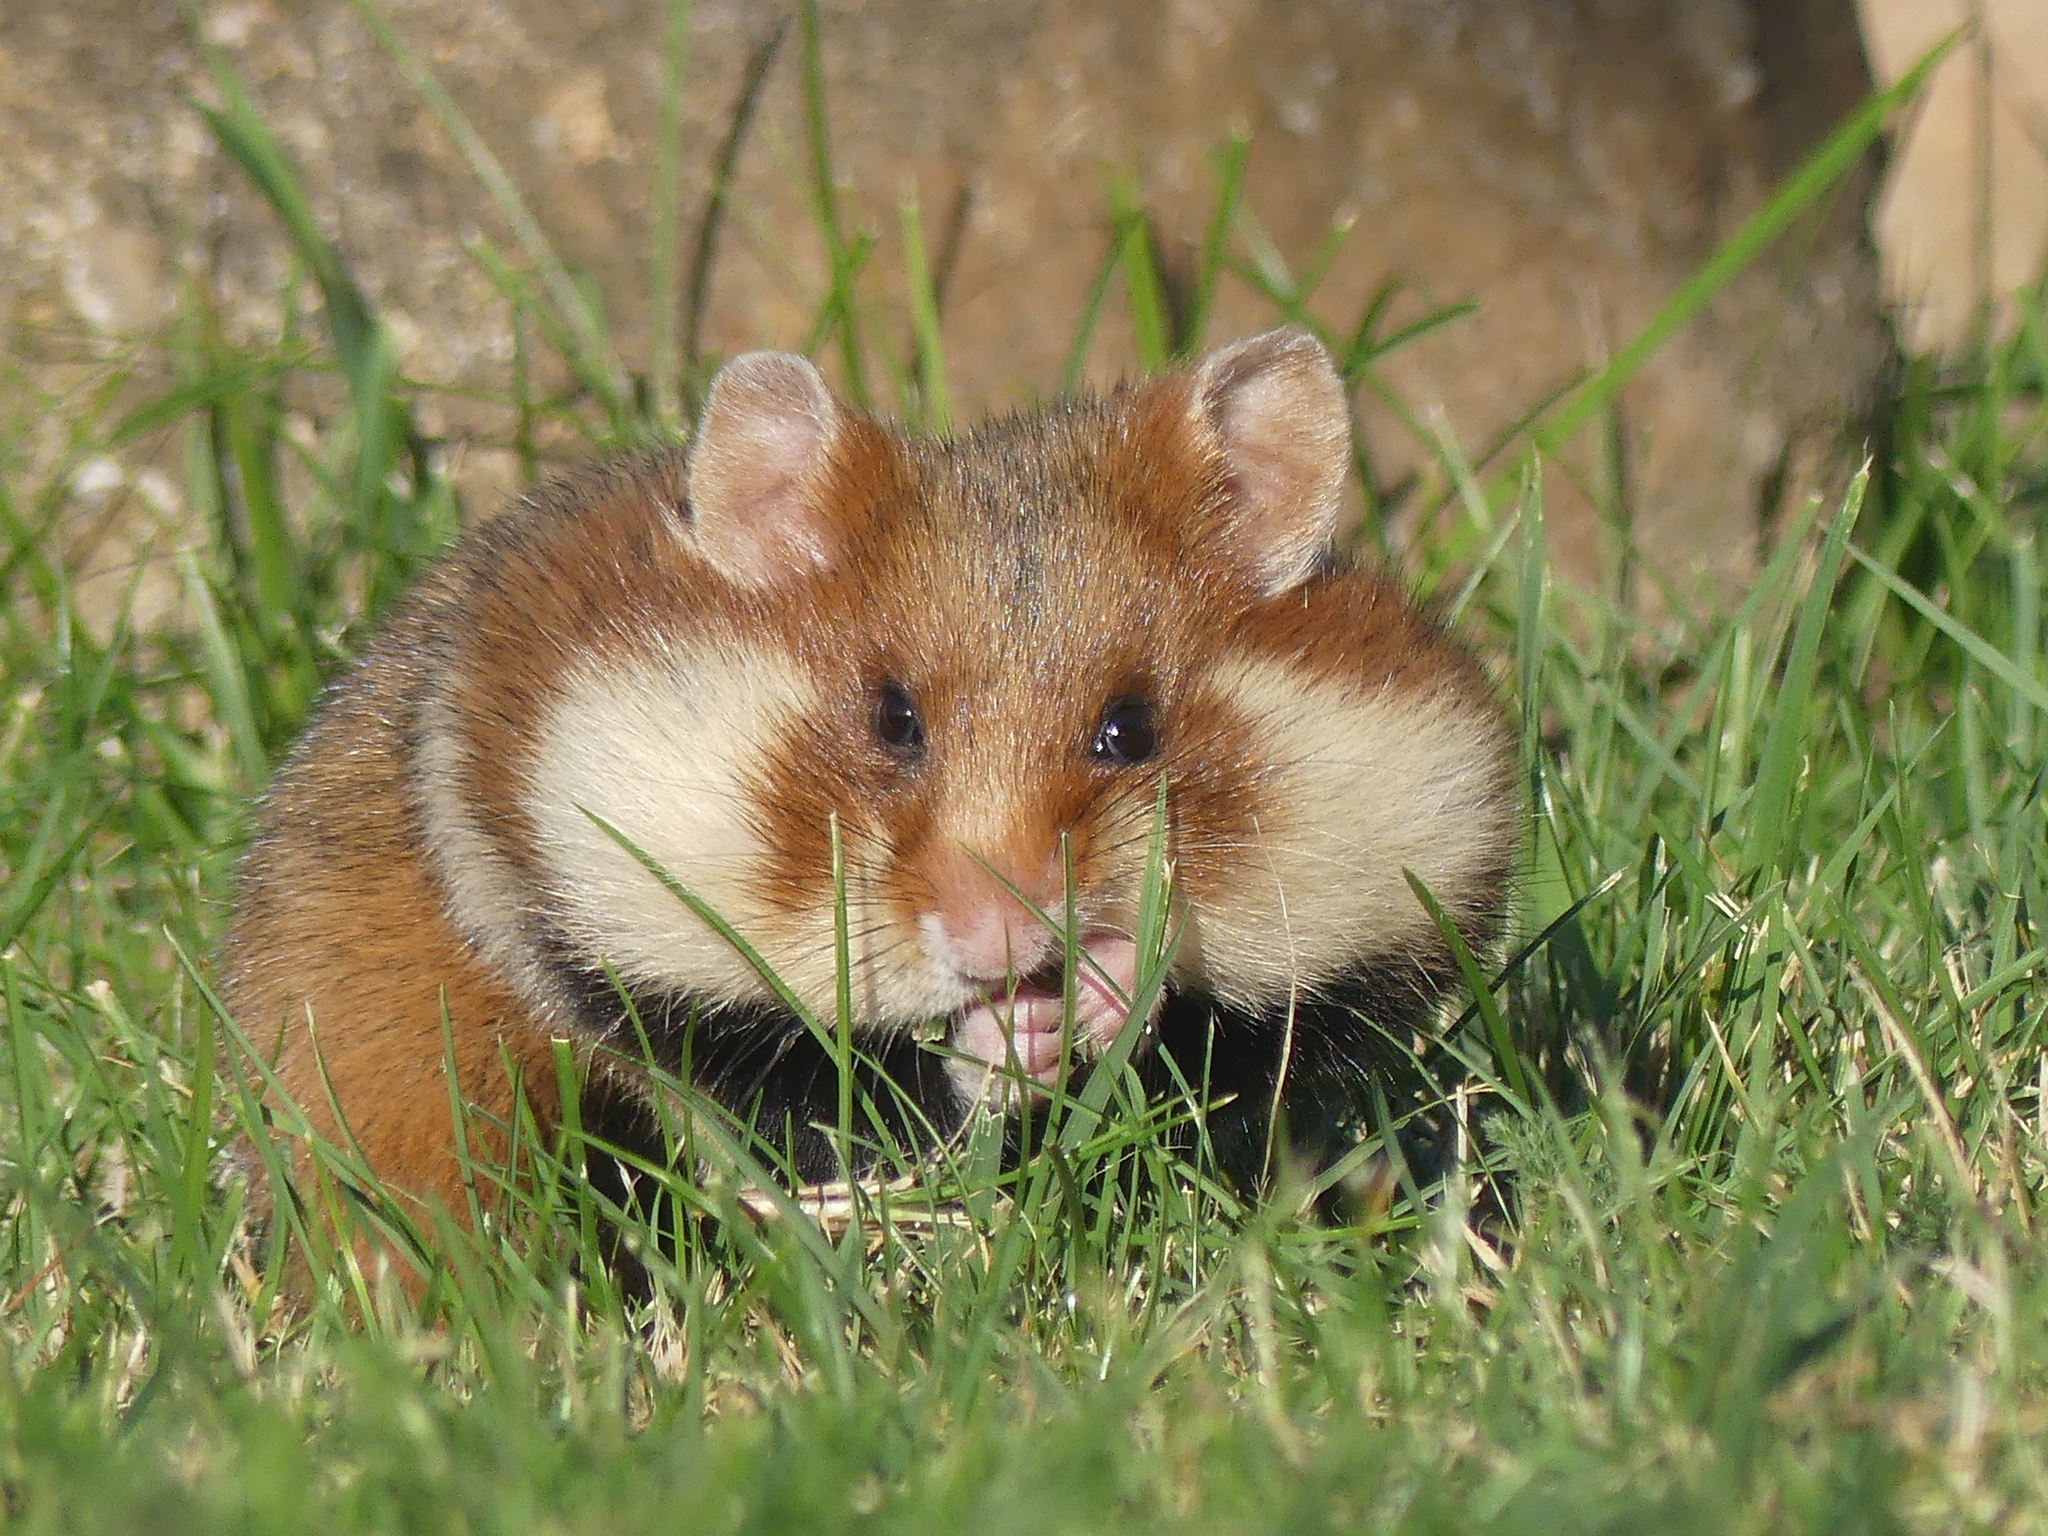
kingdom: Animalia
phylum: Chordata
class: Mammalia
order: Rodentia
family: Cricetidae
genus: Cricetus
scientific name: Cricetus cricetus
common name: Common hamster
